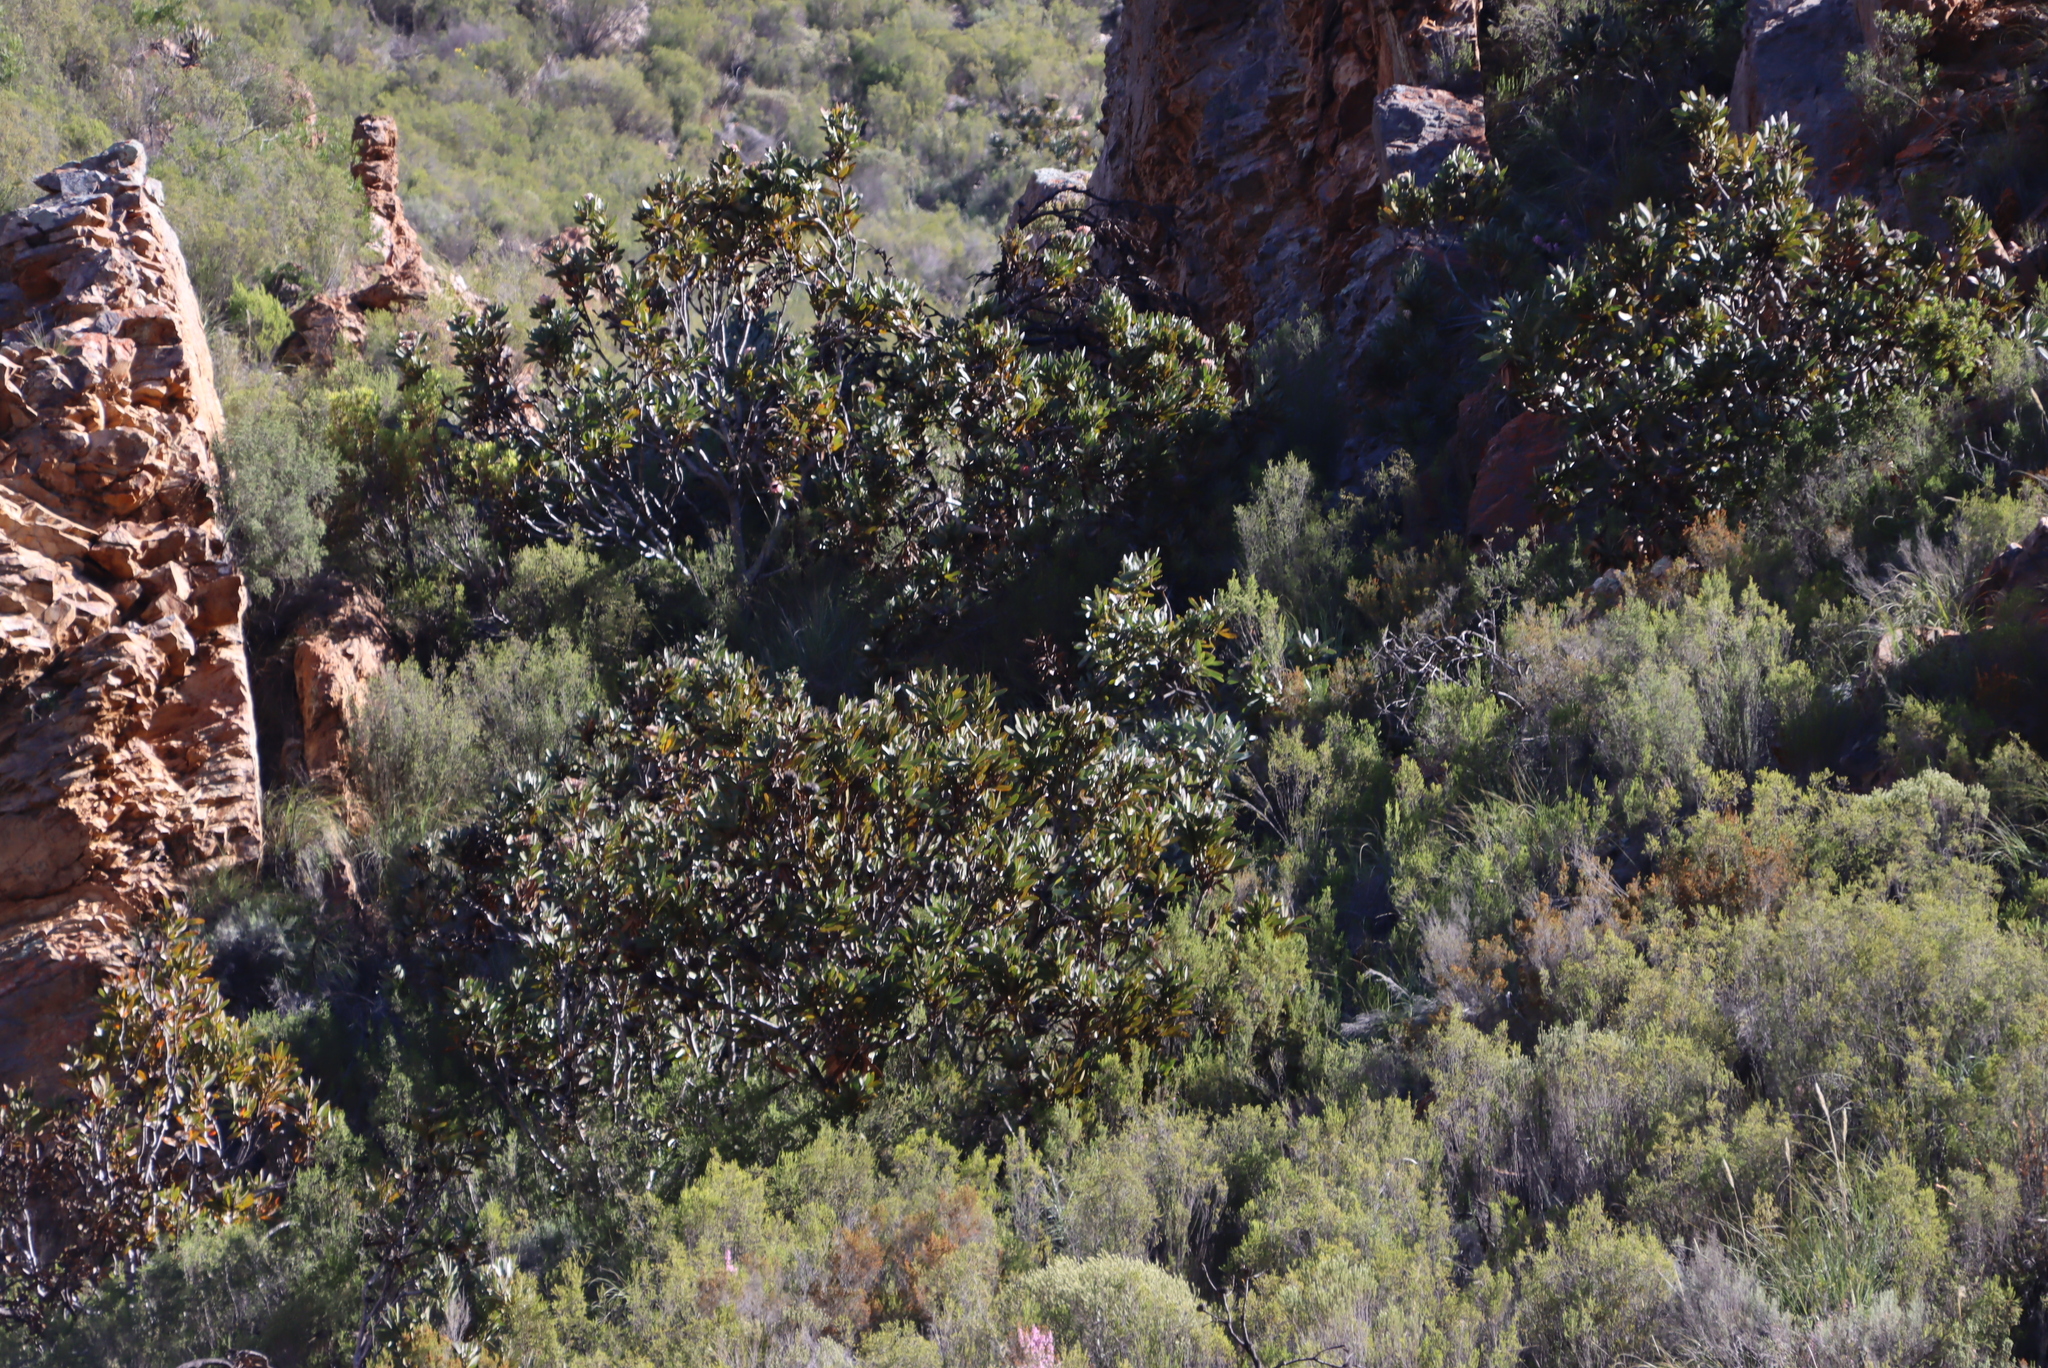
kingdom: Plantae
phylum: Tracheophyta
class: Magnoliopsida
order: Proteales
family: Proteaceae
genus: Protea
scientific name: Protea lorifolia
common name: Strap-leaved protea
